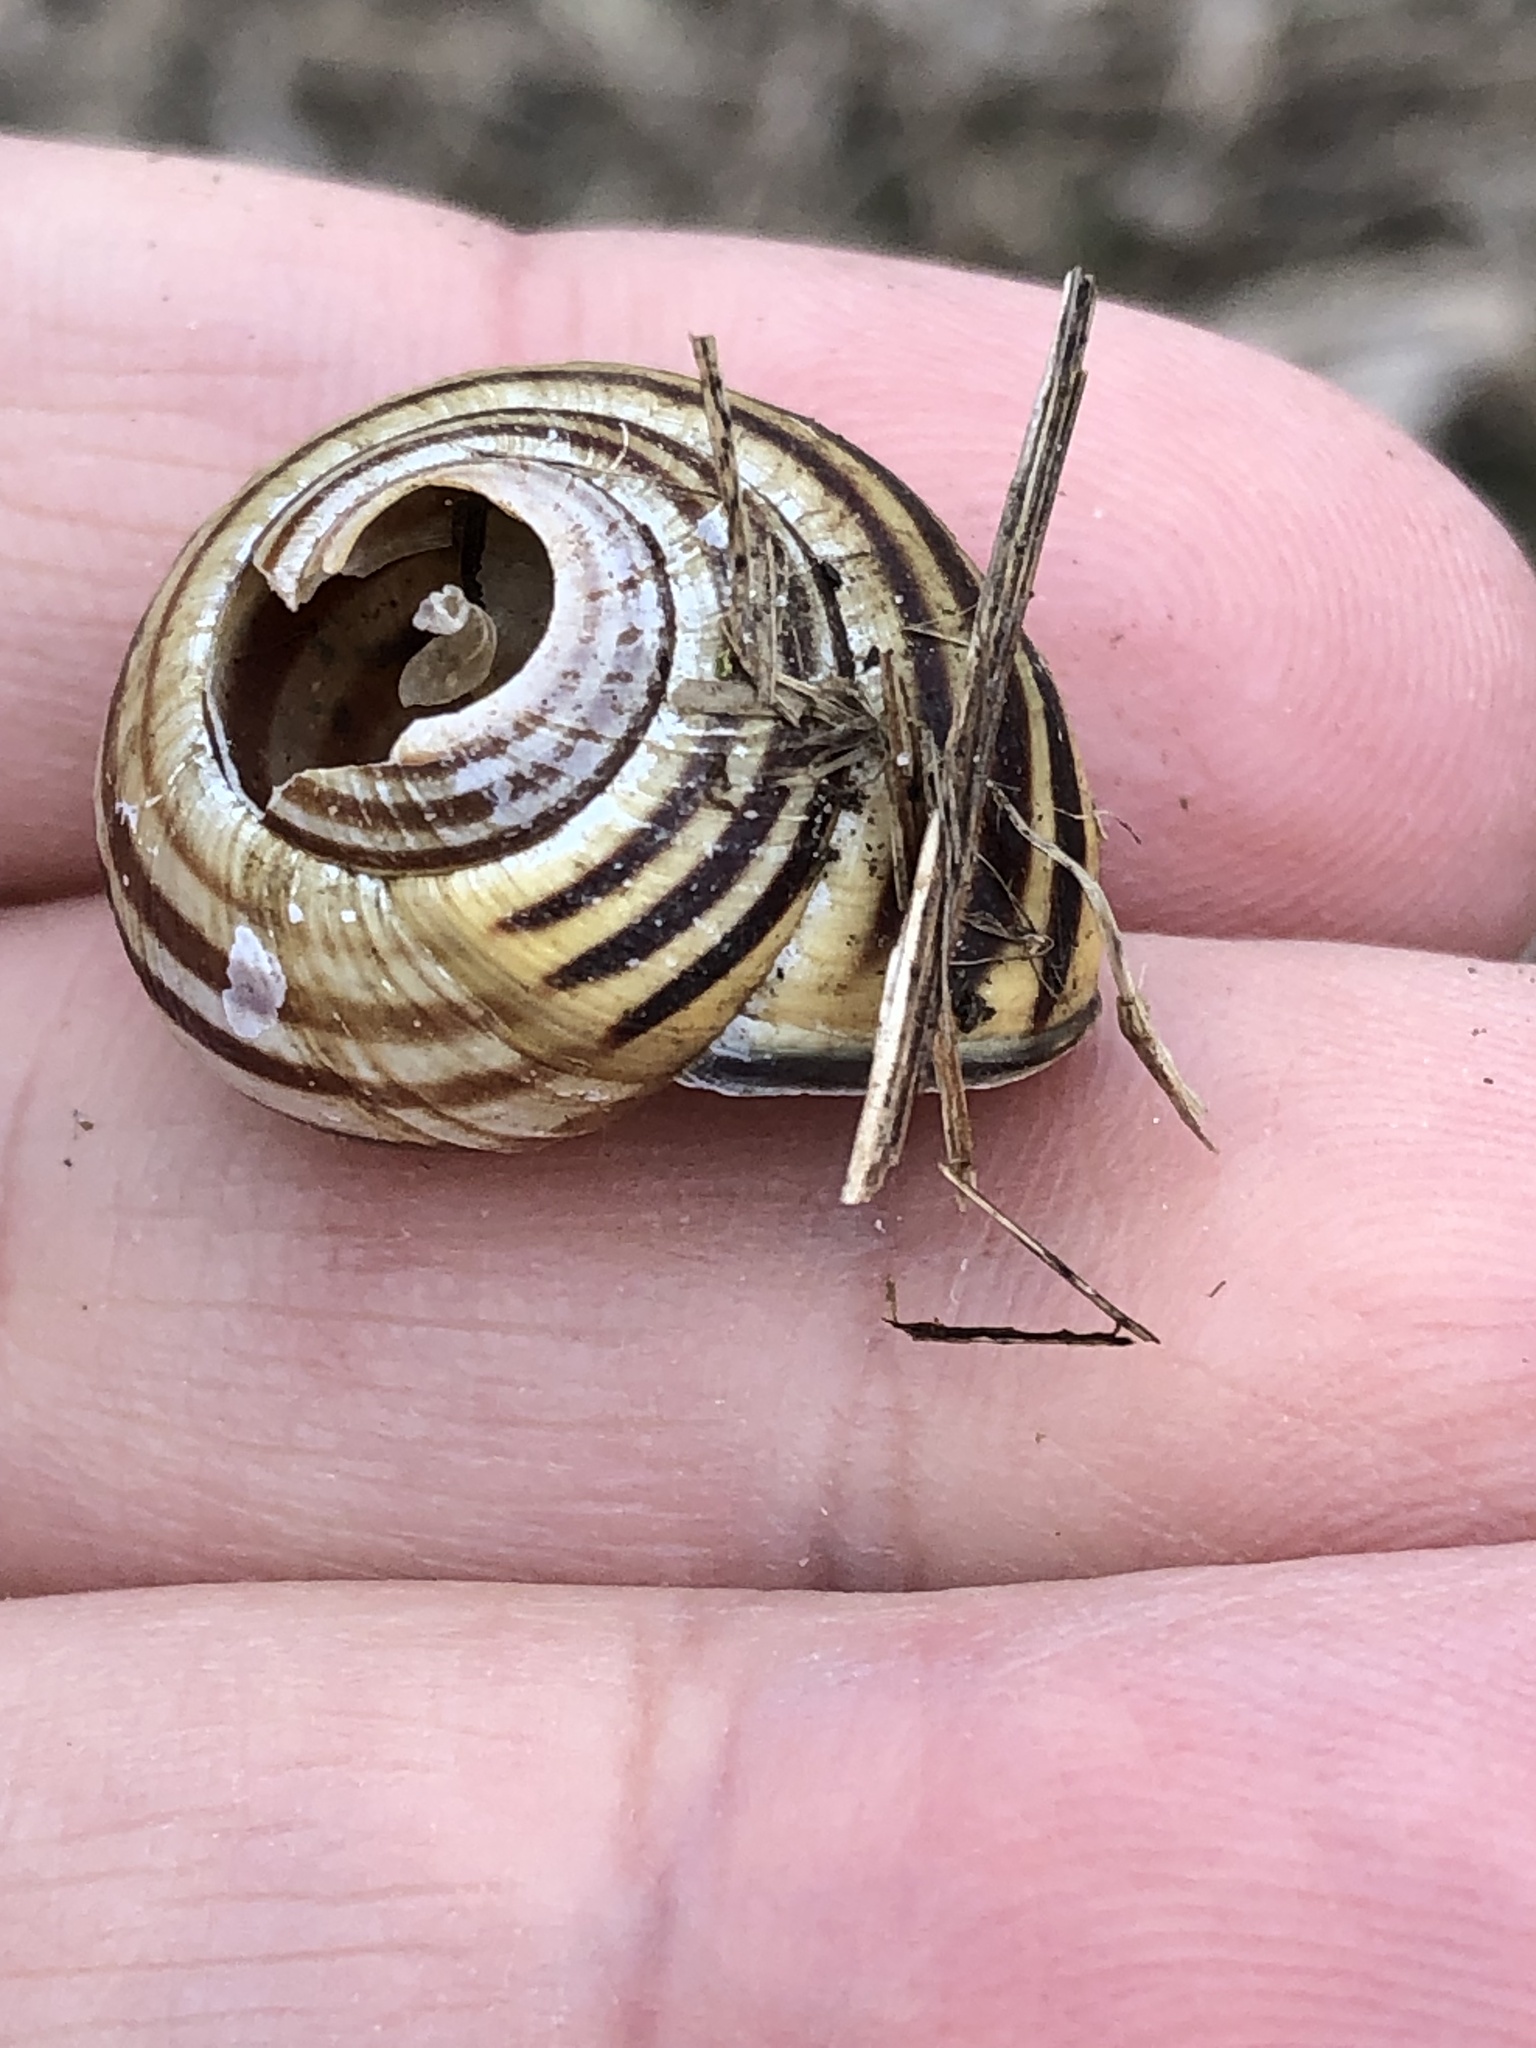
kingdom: Animalia
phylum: Mollusca
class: Gastropoda
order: Stylommatophora
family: Helicidae
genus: Cepaea
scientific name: Cepaea nemoralis
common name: Grovesnail
